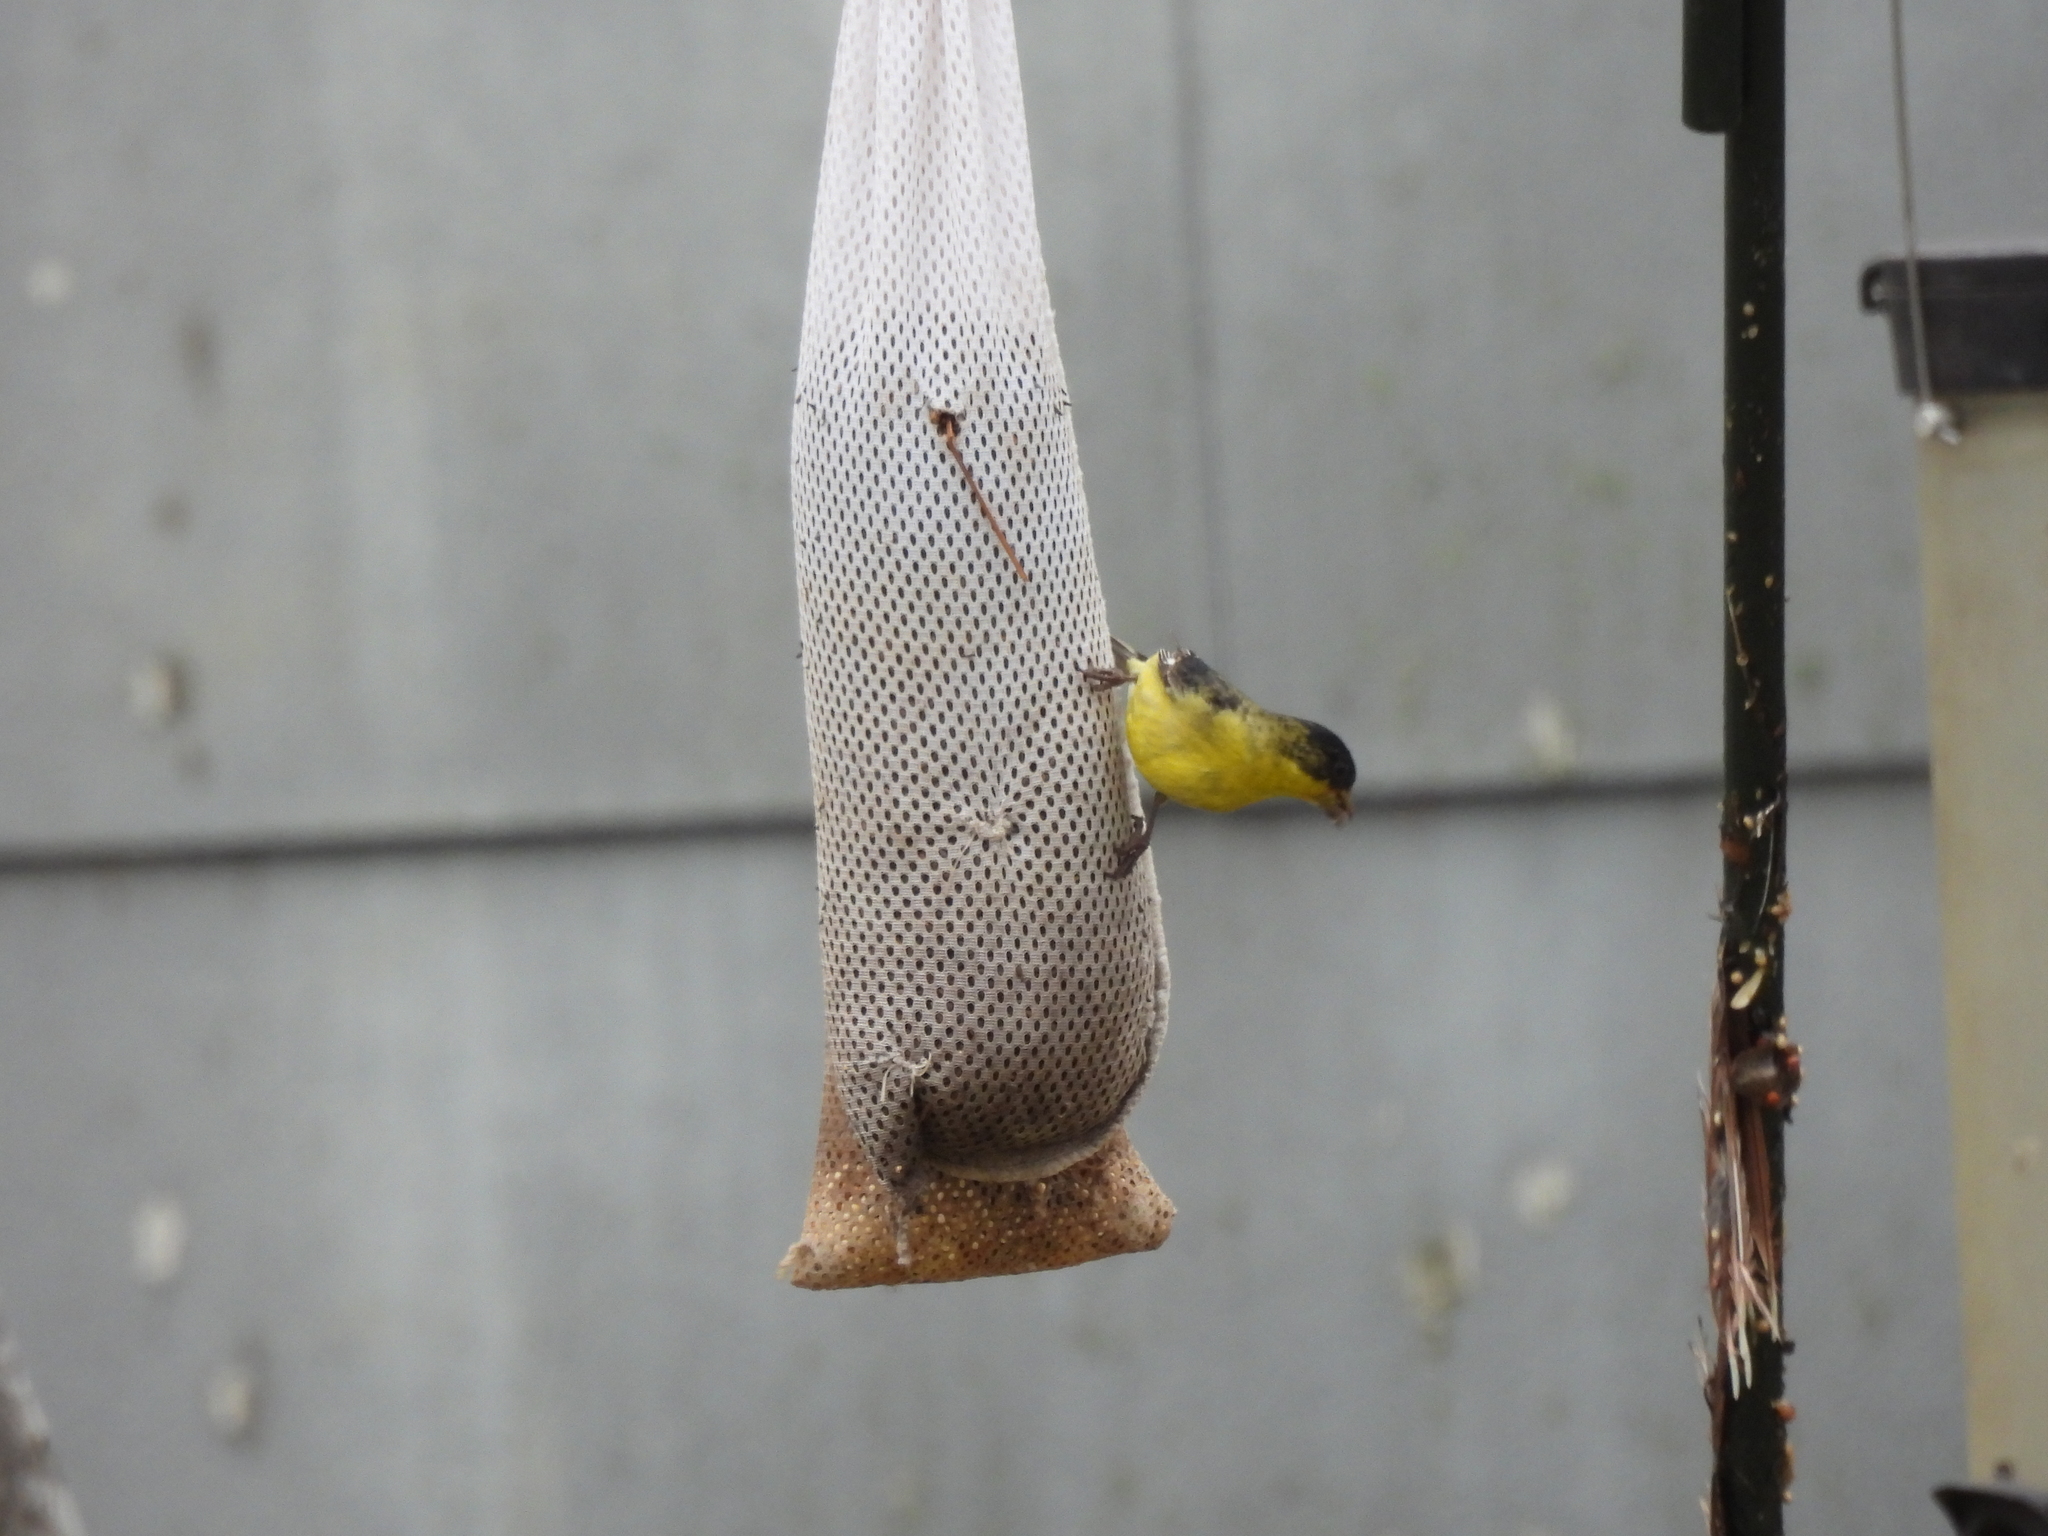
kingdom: Animalia
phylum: Chordata
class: Aves
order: Passeriformes
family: Fringillidae
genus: Spinus
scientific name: Spinus psaltria
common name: Lesser goldfinch
